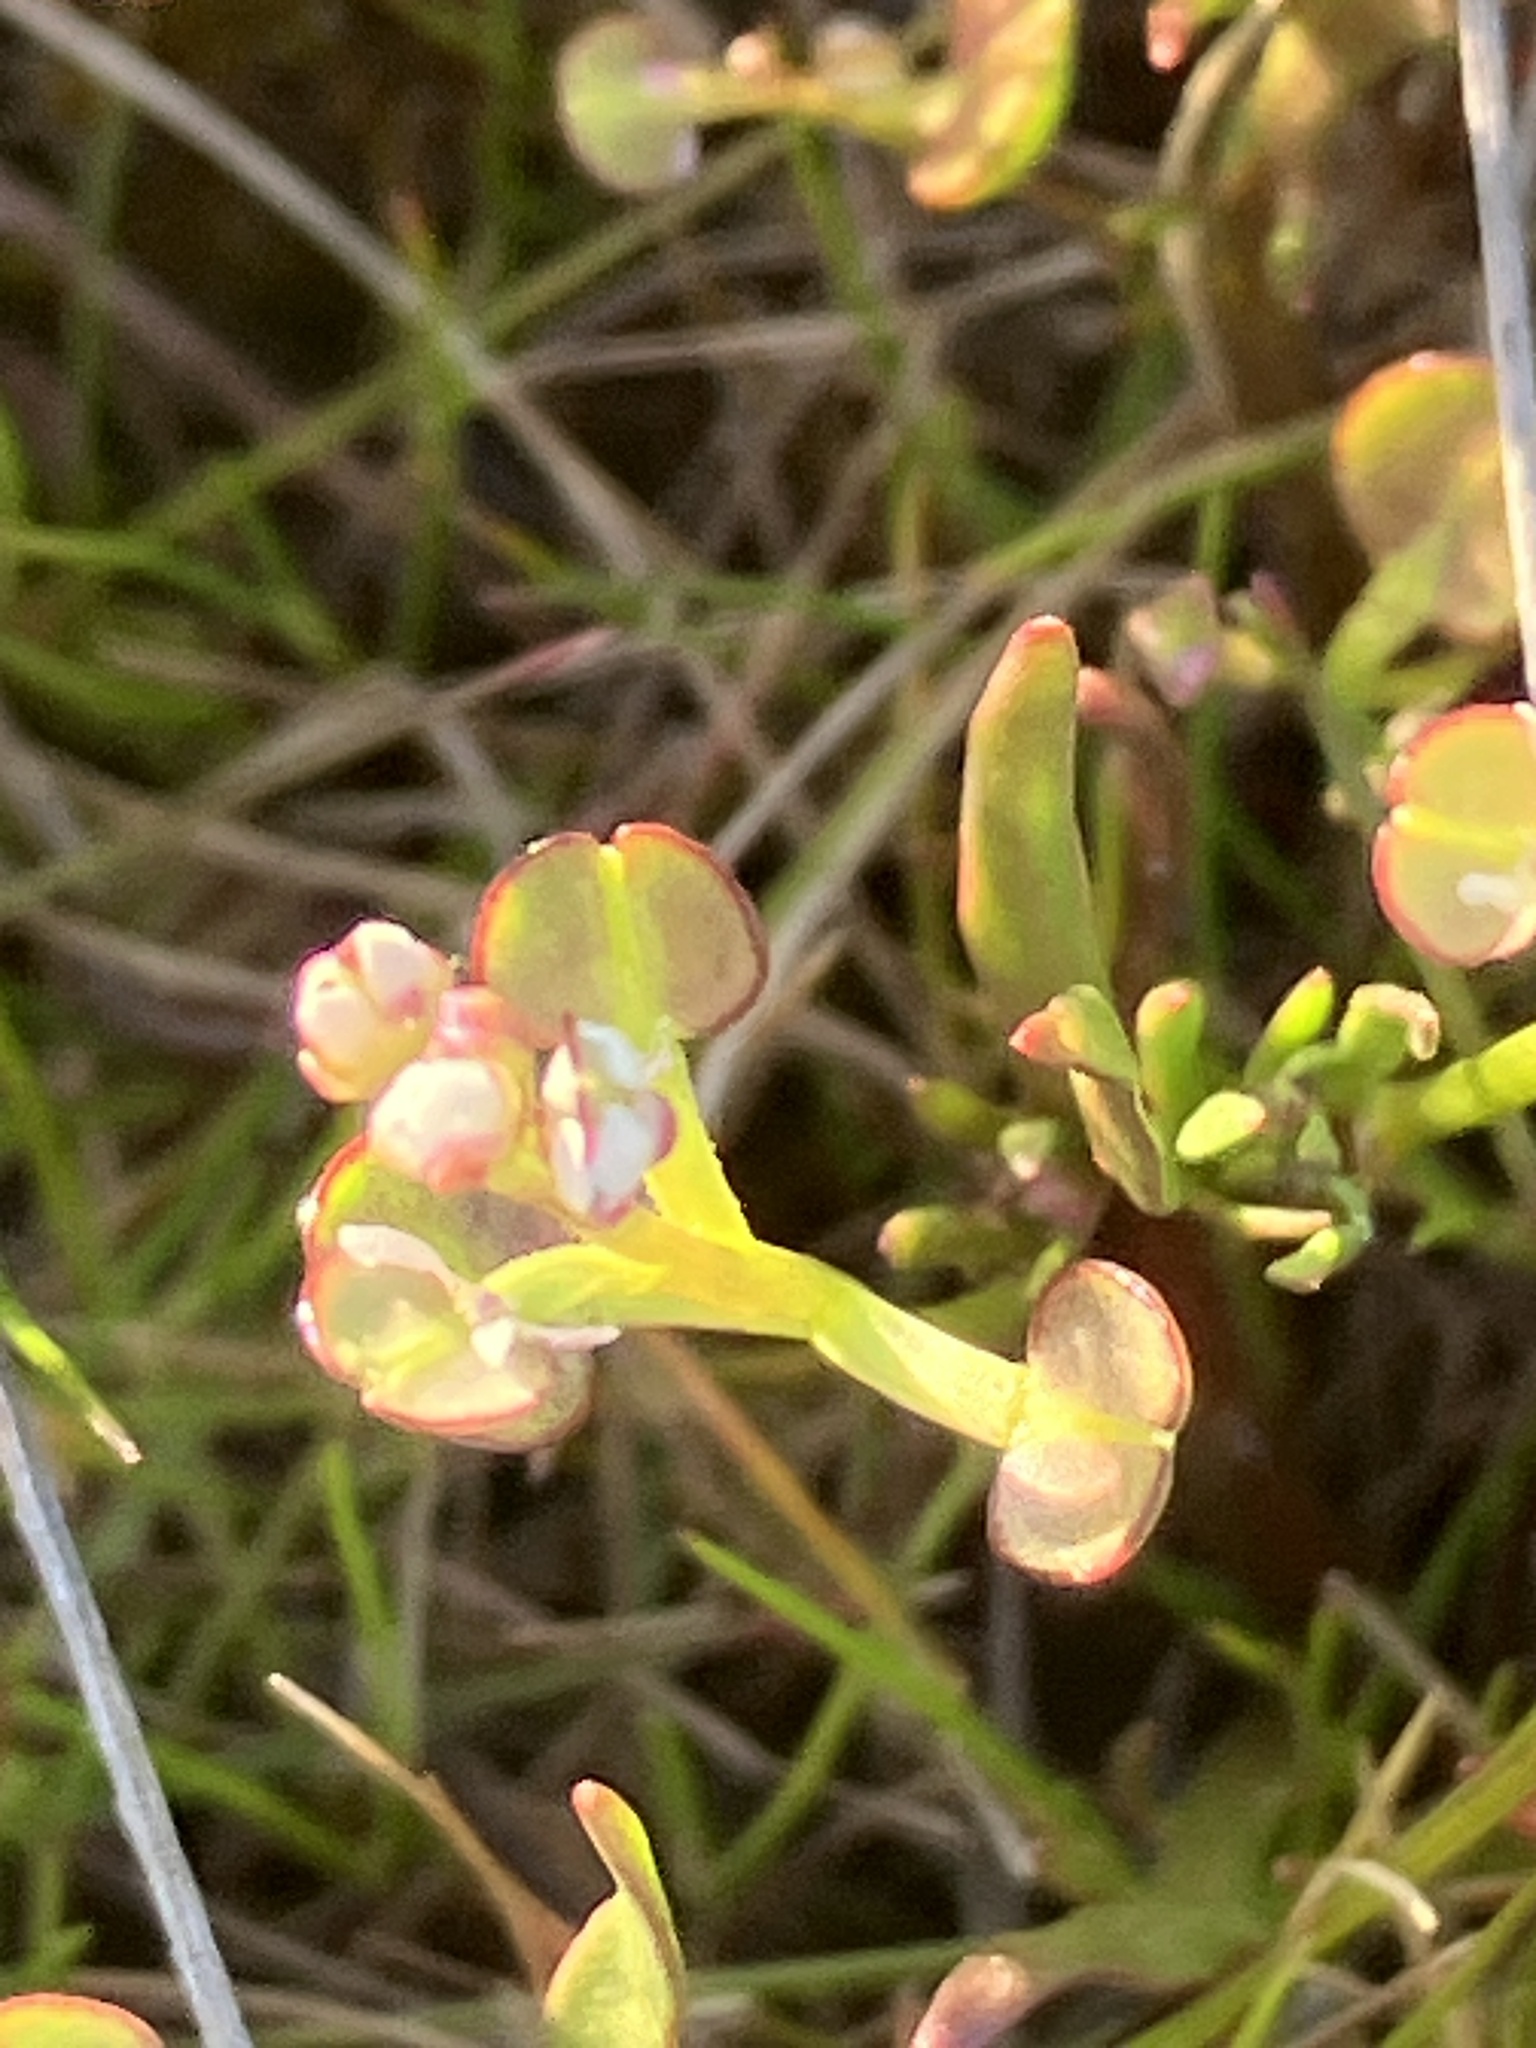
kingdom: Plantae
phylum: Tracheophyta
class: Magnoliopsida
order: Brassicales
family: Brassicaceae
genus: Teesdalia
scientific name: Teesdalia nudicaulis
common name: Shepherd's cress
